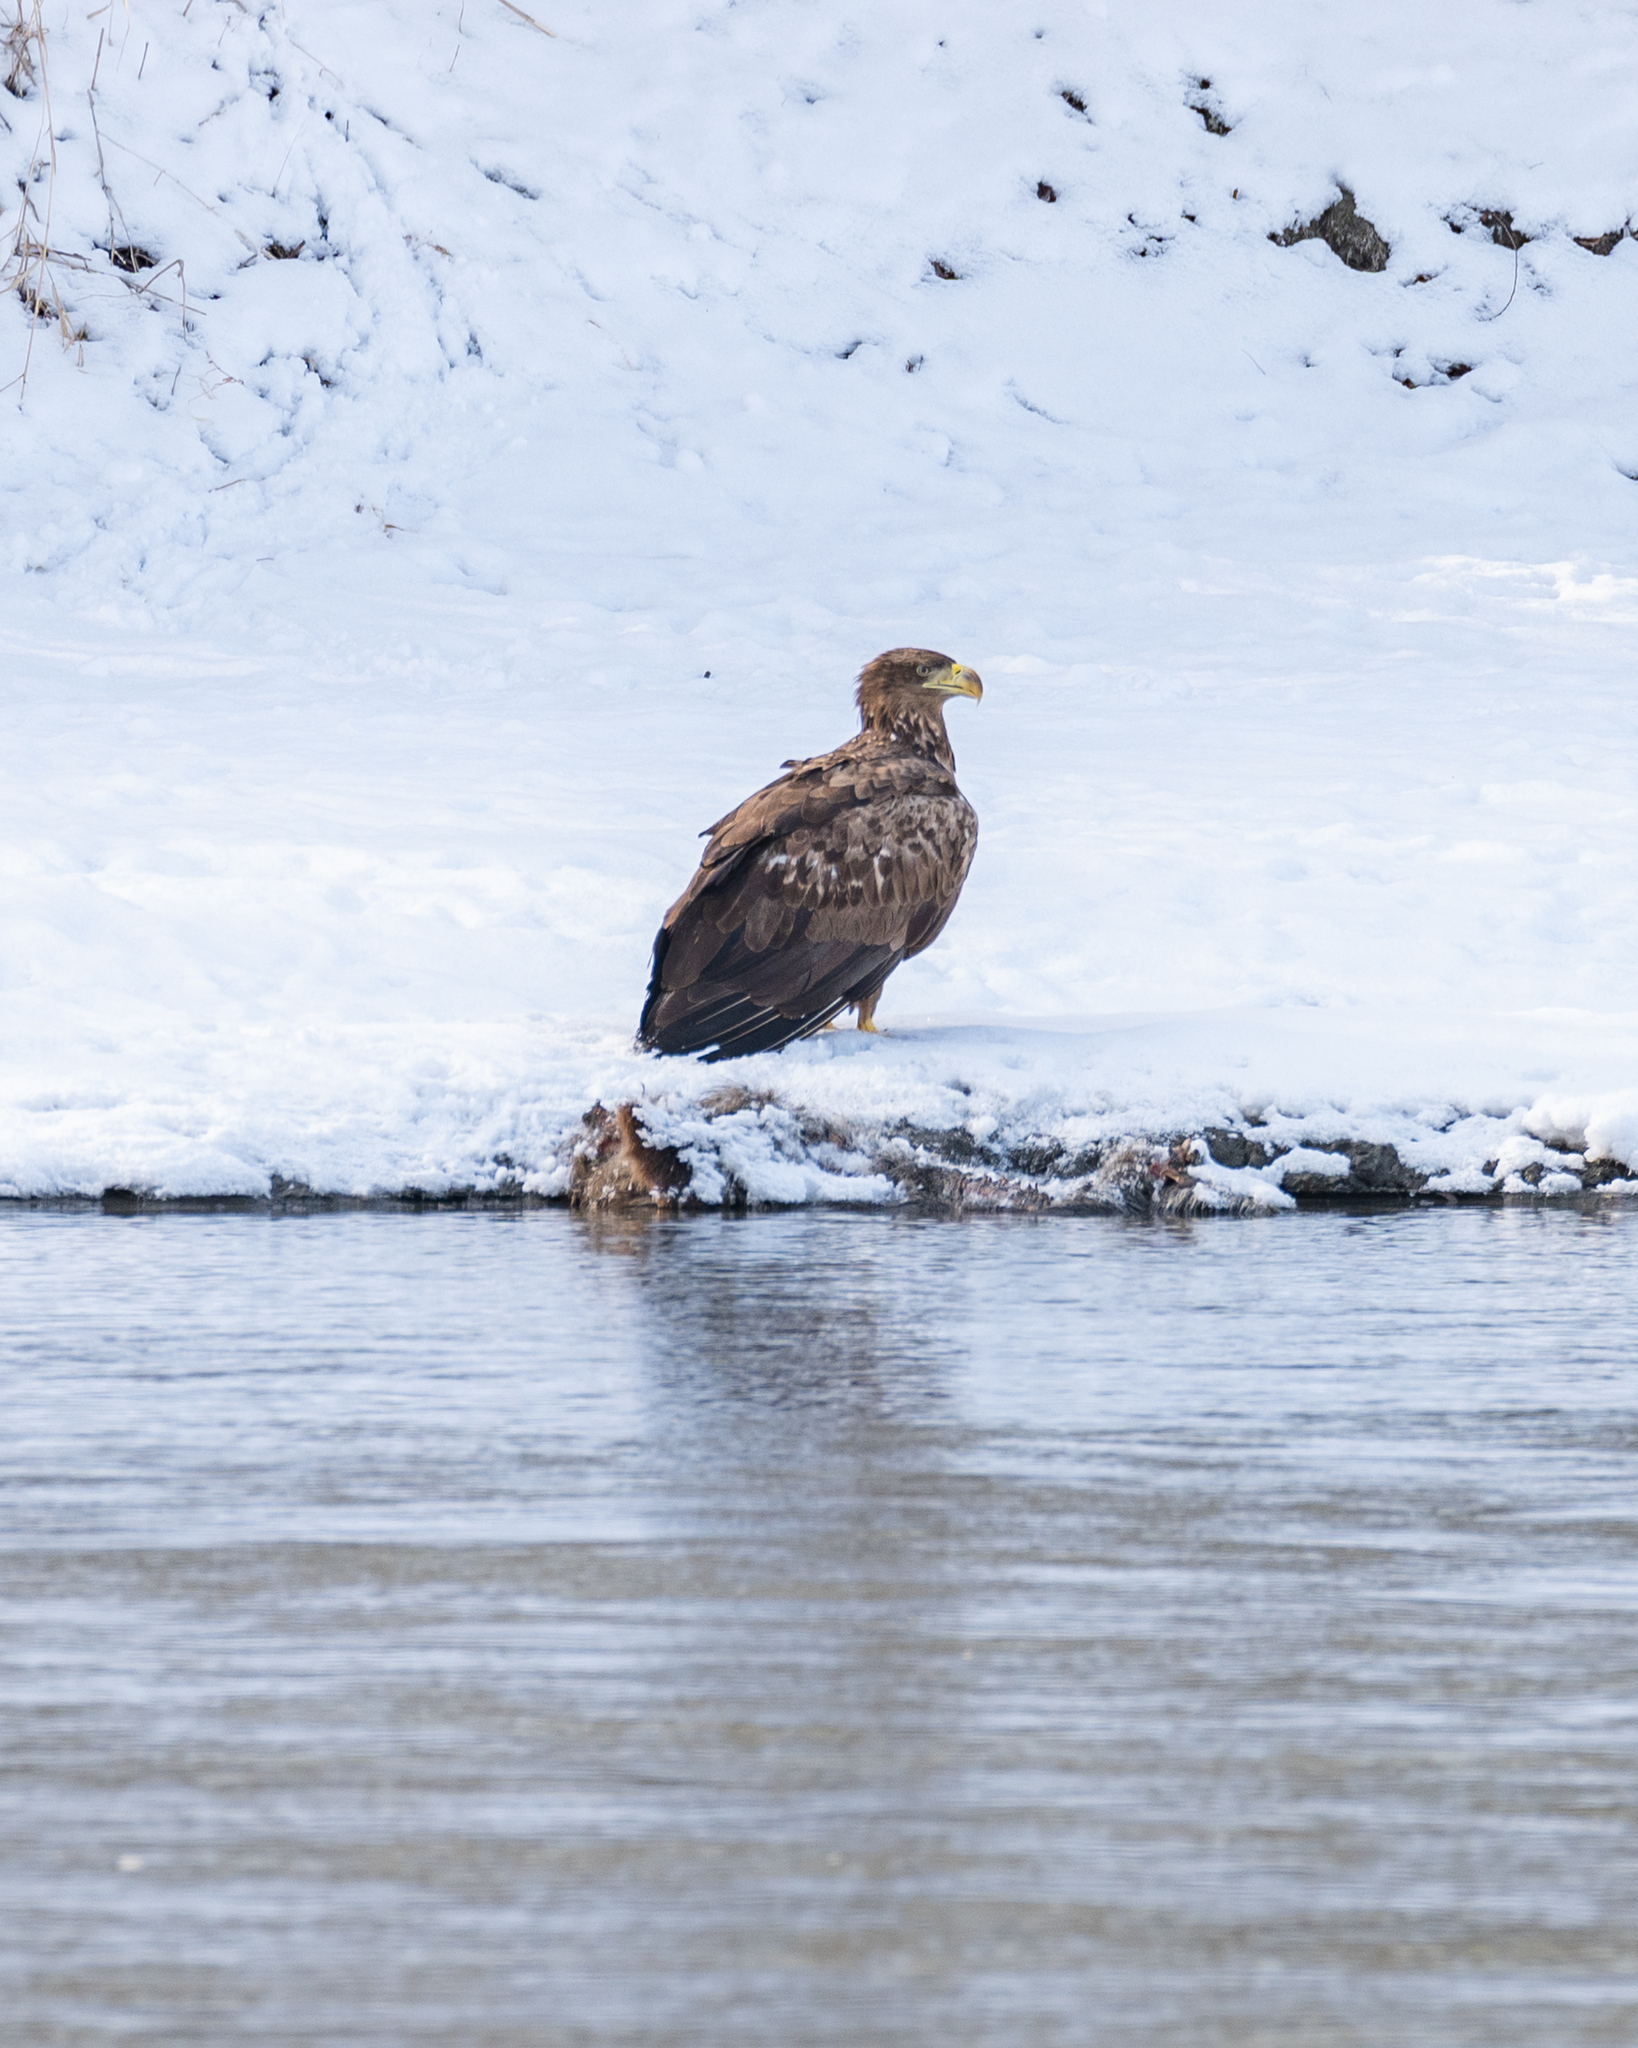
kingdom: Animalia
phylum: Chordata
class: Aves
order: Accipitriformes
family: Accipitridae
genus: Haliaeetus
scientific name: Haliaeetus albicilla
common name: White-tailed eagle
